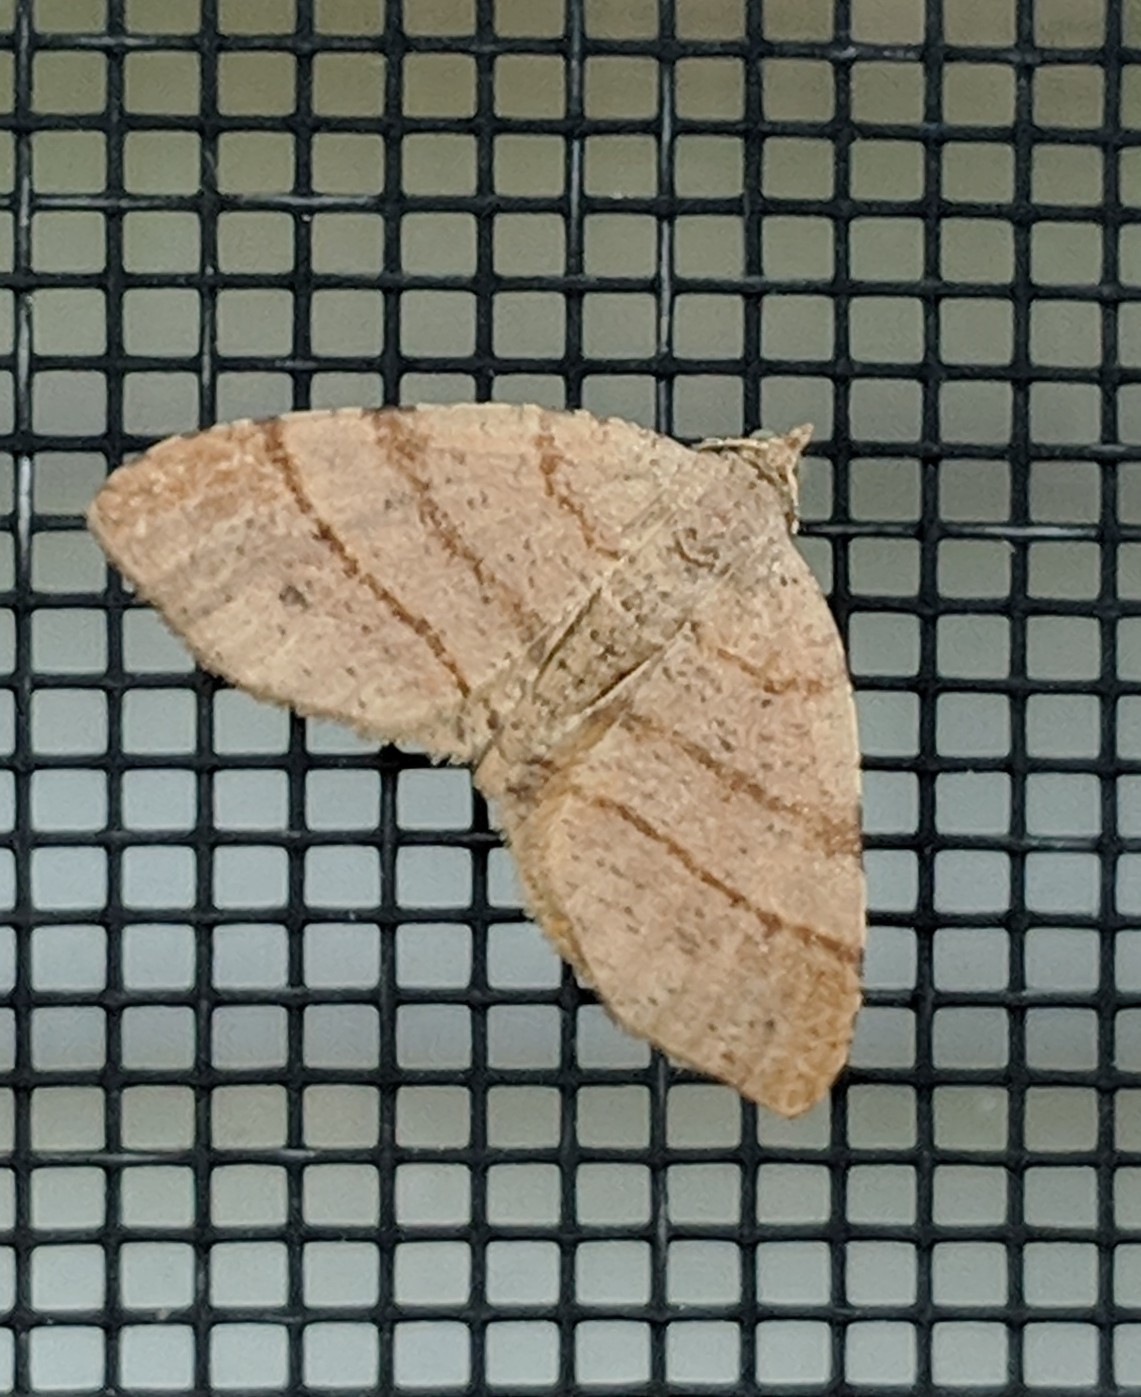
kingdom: Animalia
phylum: Arthropoda
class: Insecta
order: Lepidoptera
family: Geometridae
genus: Mellilla
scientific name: Mellilla xanthometata
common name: Orange wing moth
